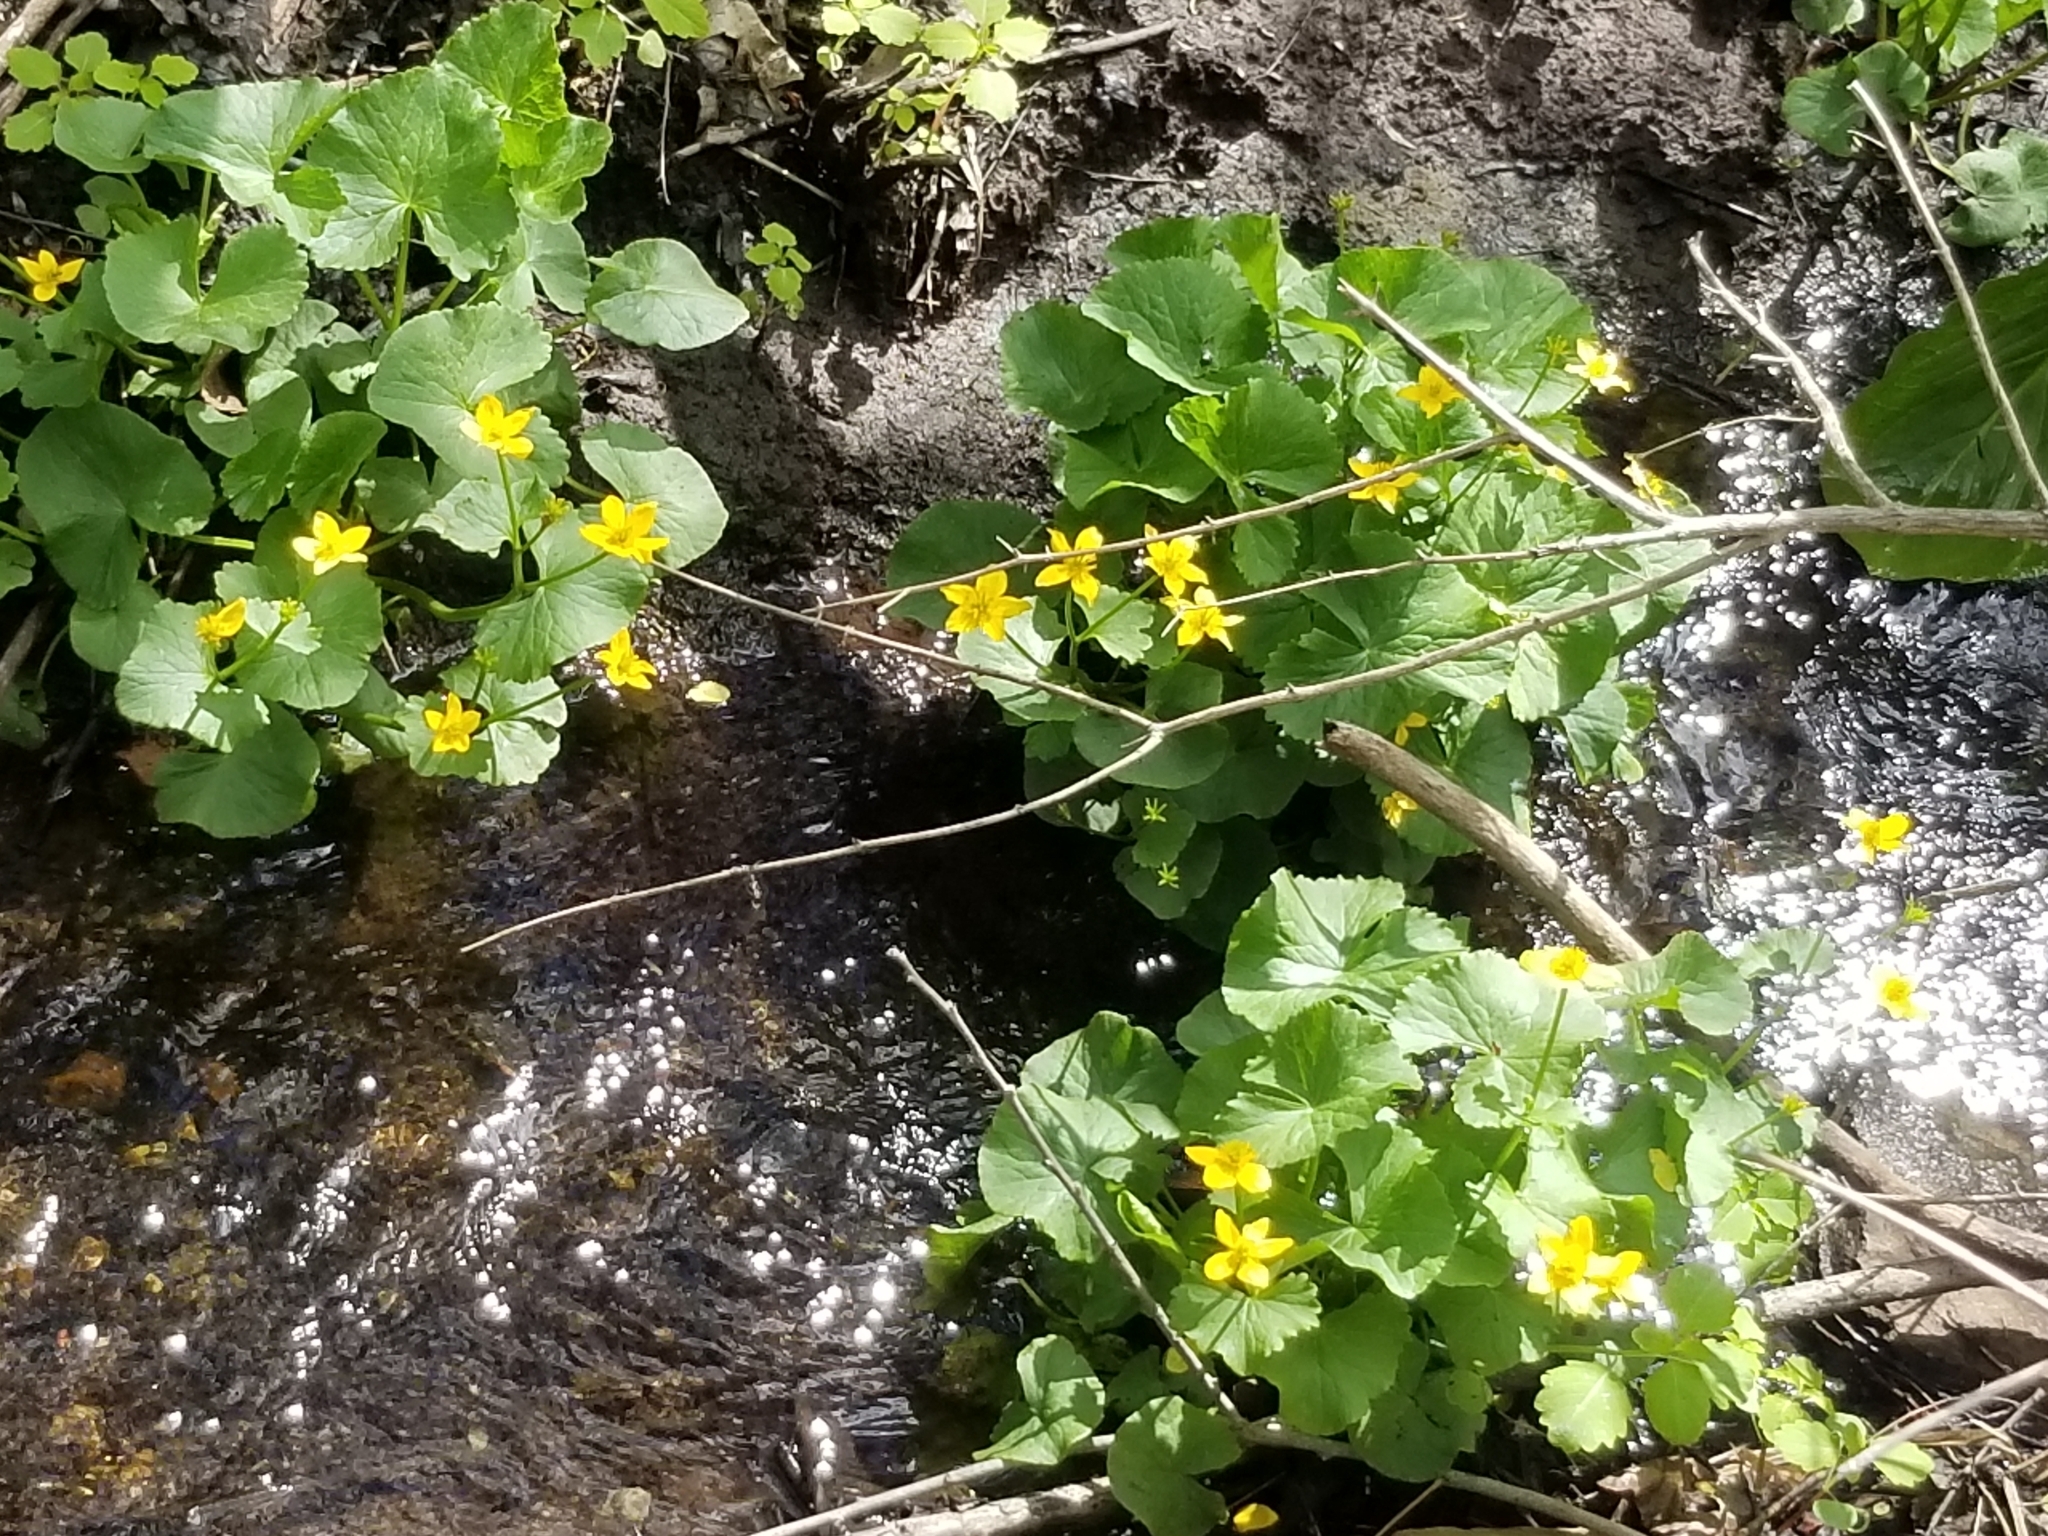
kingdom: Plantae
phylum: Tracheophyta
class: Magnoliopsida
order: Ranunculales
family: Ranunculaceae
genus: Caltha
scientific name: Caltha palustris
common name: Marsh marigold
